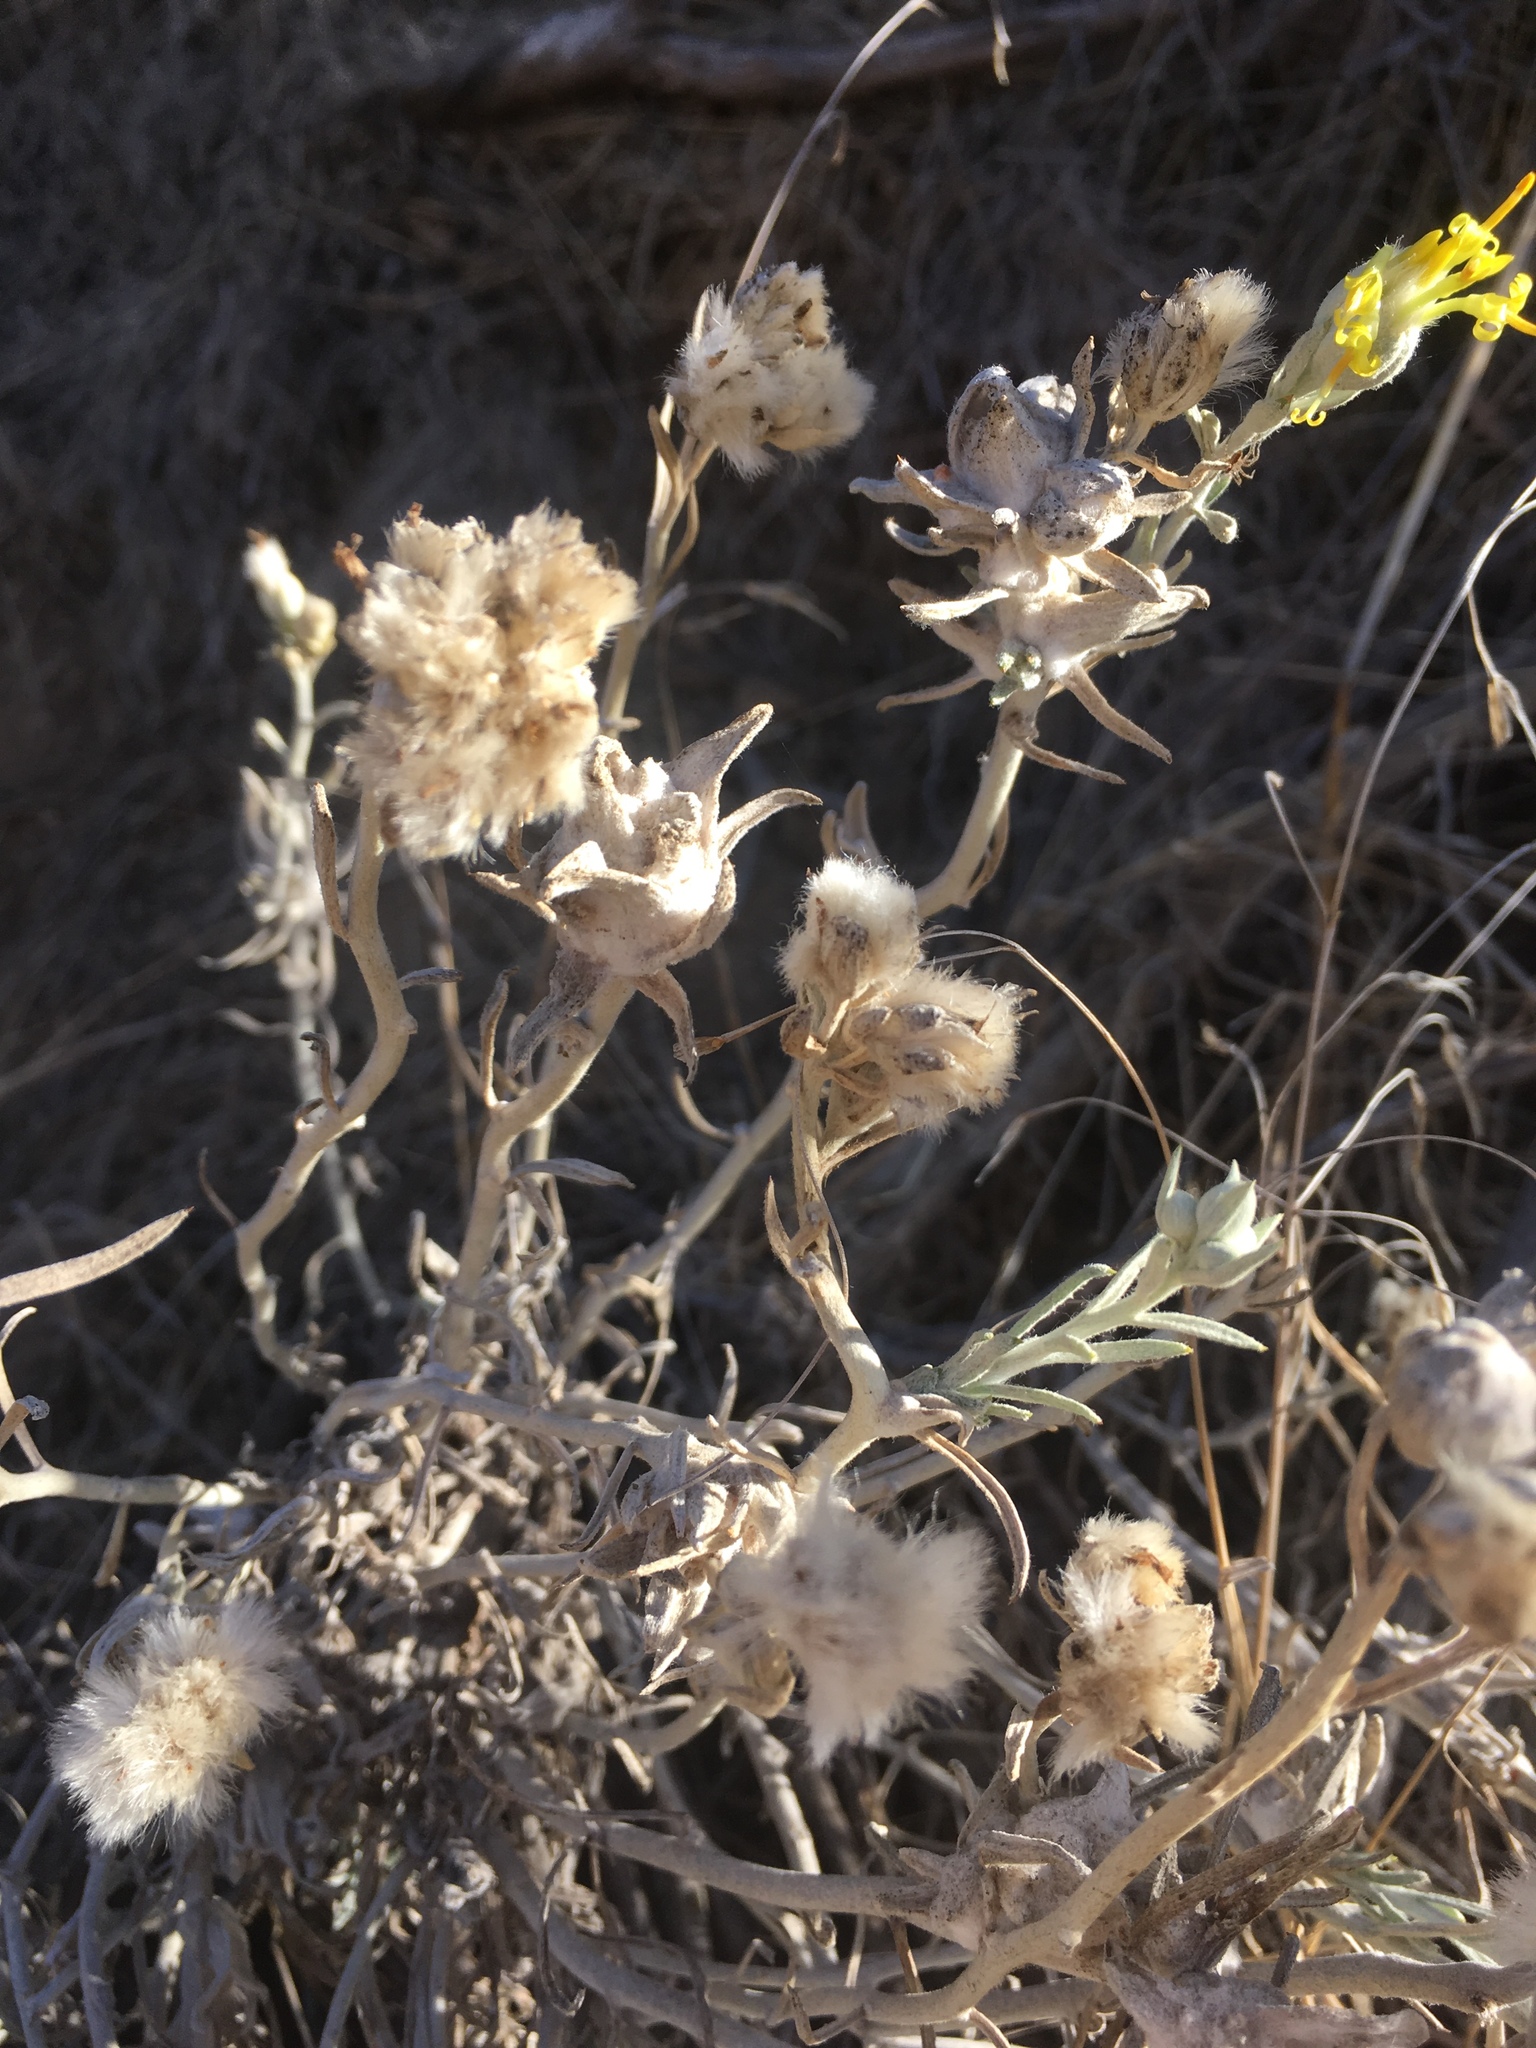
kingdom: Plantae
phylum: Tracheophyta
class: Magnoliopsida
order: Asterales
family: Asteraceae
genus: Tetradymia
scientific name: Tetradymia comosa
